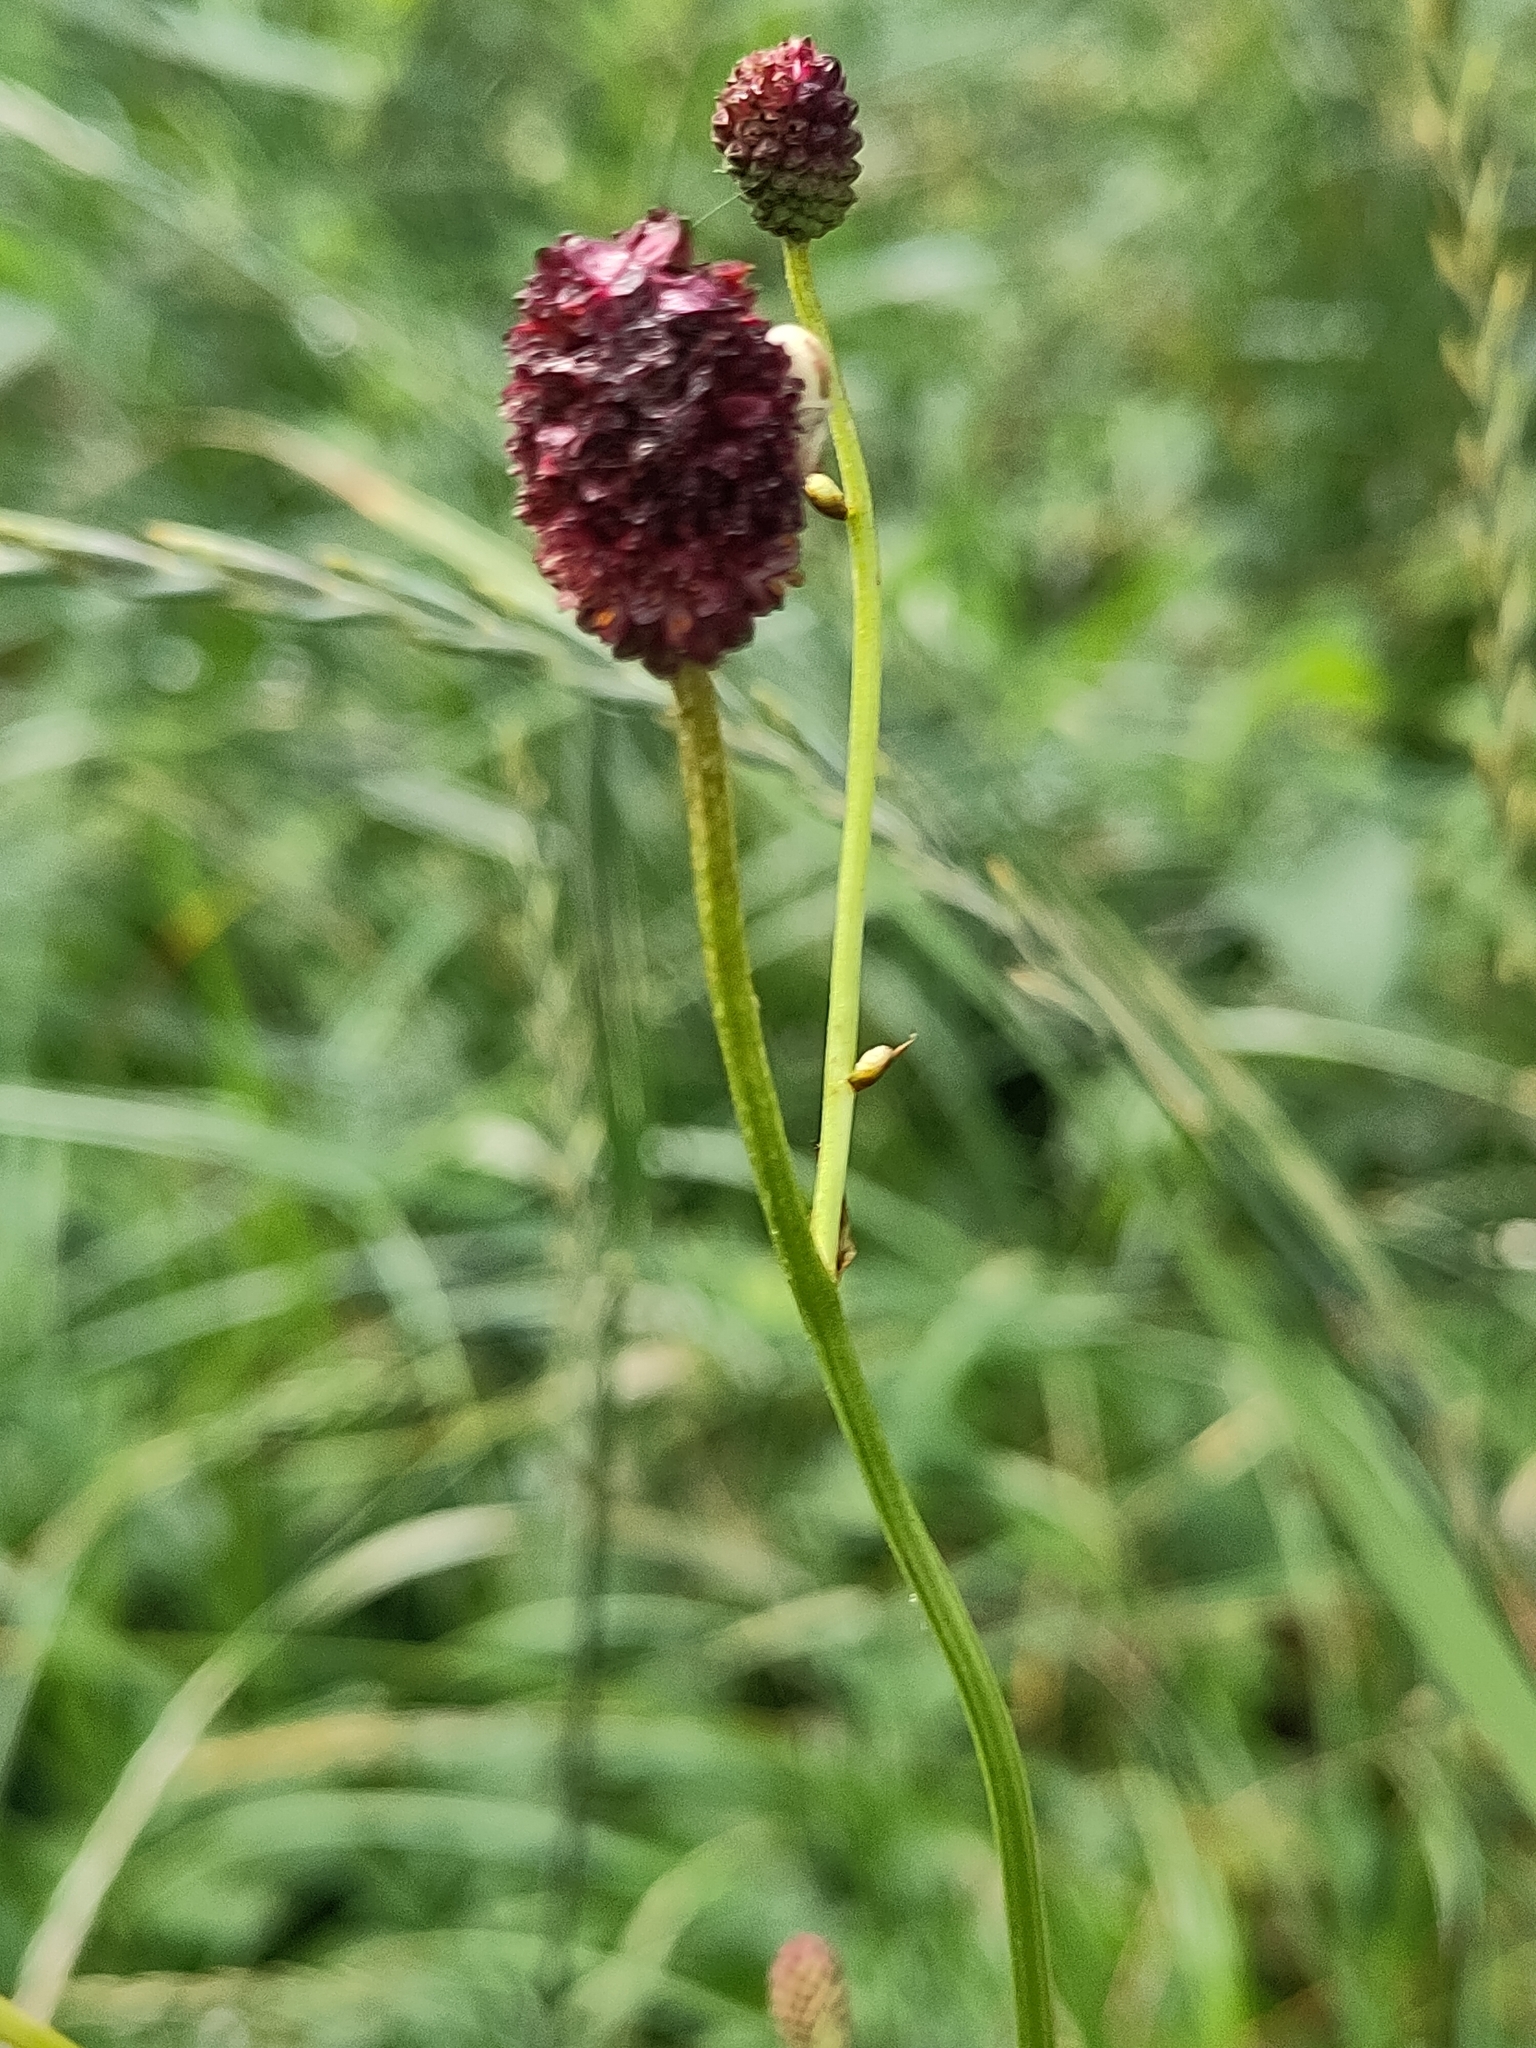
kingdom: Plantae
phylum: Tracheophyta
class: Magnoliopsida
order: Rosales
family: Rosaceae
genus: Sanguisorba
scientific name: Sanguisorba officinalis
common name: Great burnet
